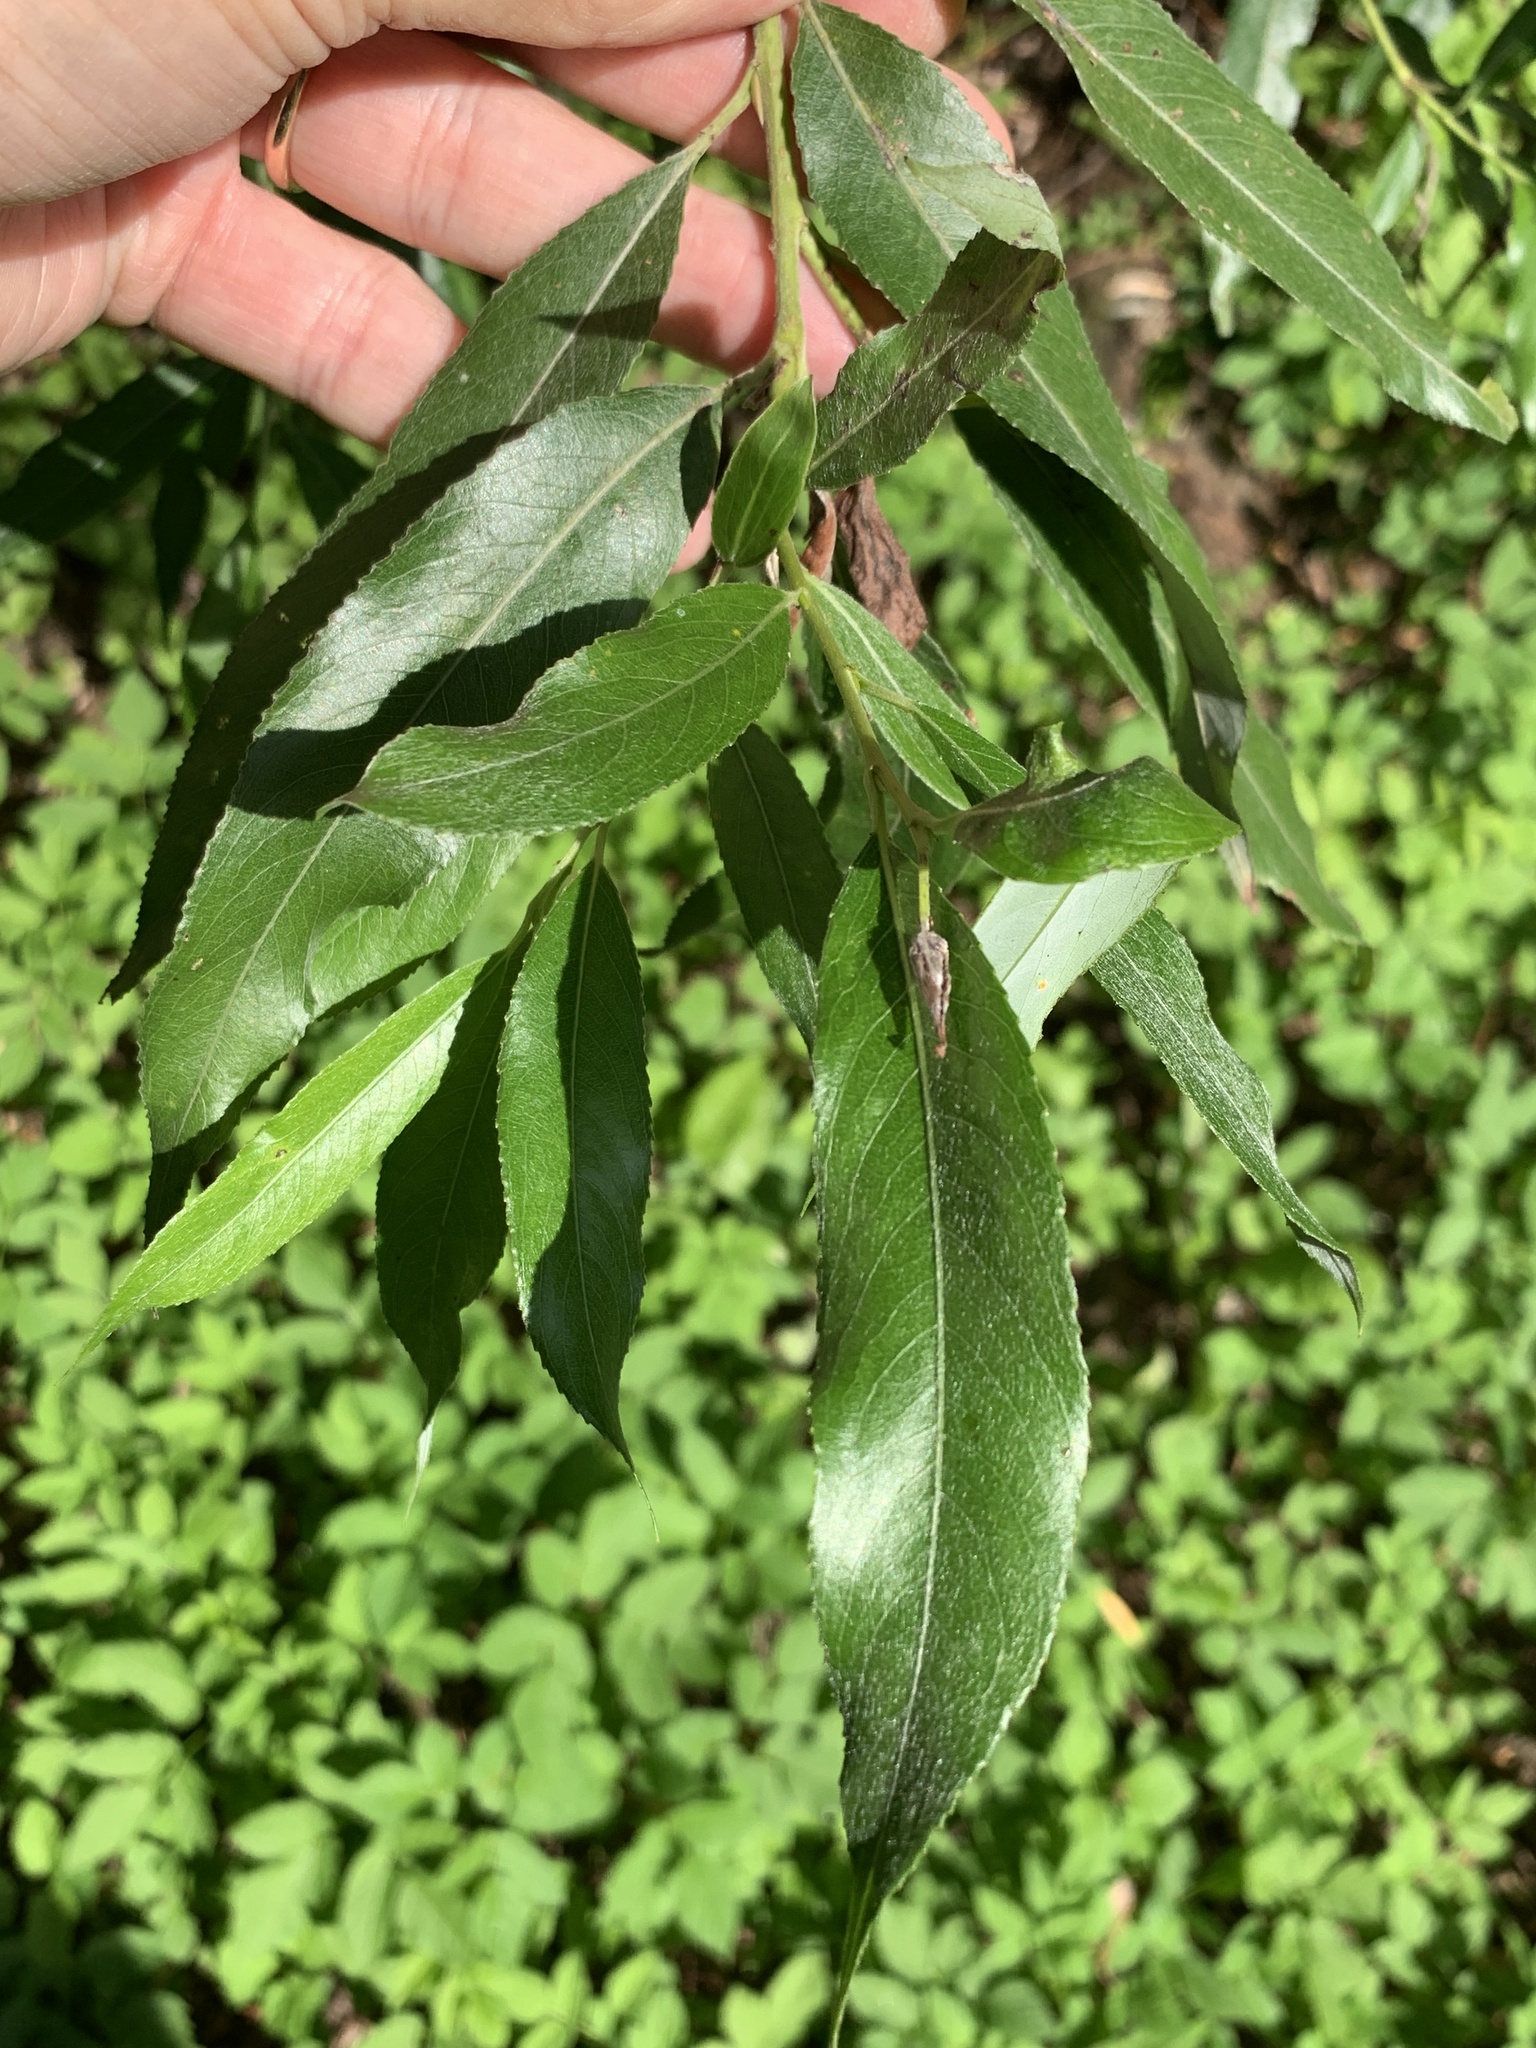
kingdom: Plantae
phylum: Tracheophyta
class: Magnoliopsida
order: Malpighiales
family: Salicaceae
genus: Salix
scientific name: Salix alba
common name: White willow
